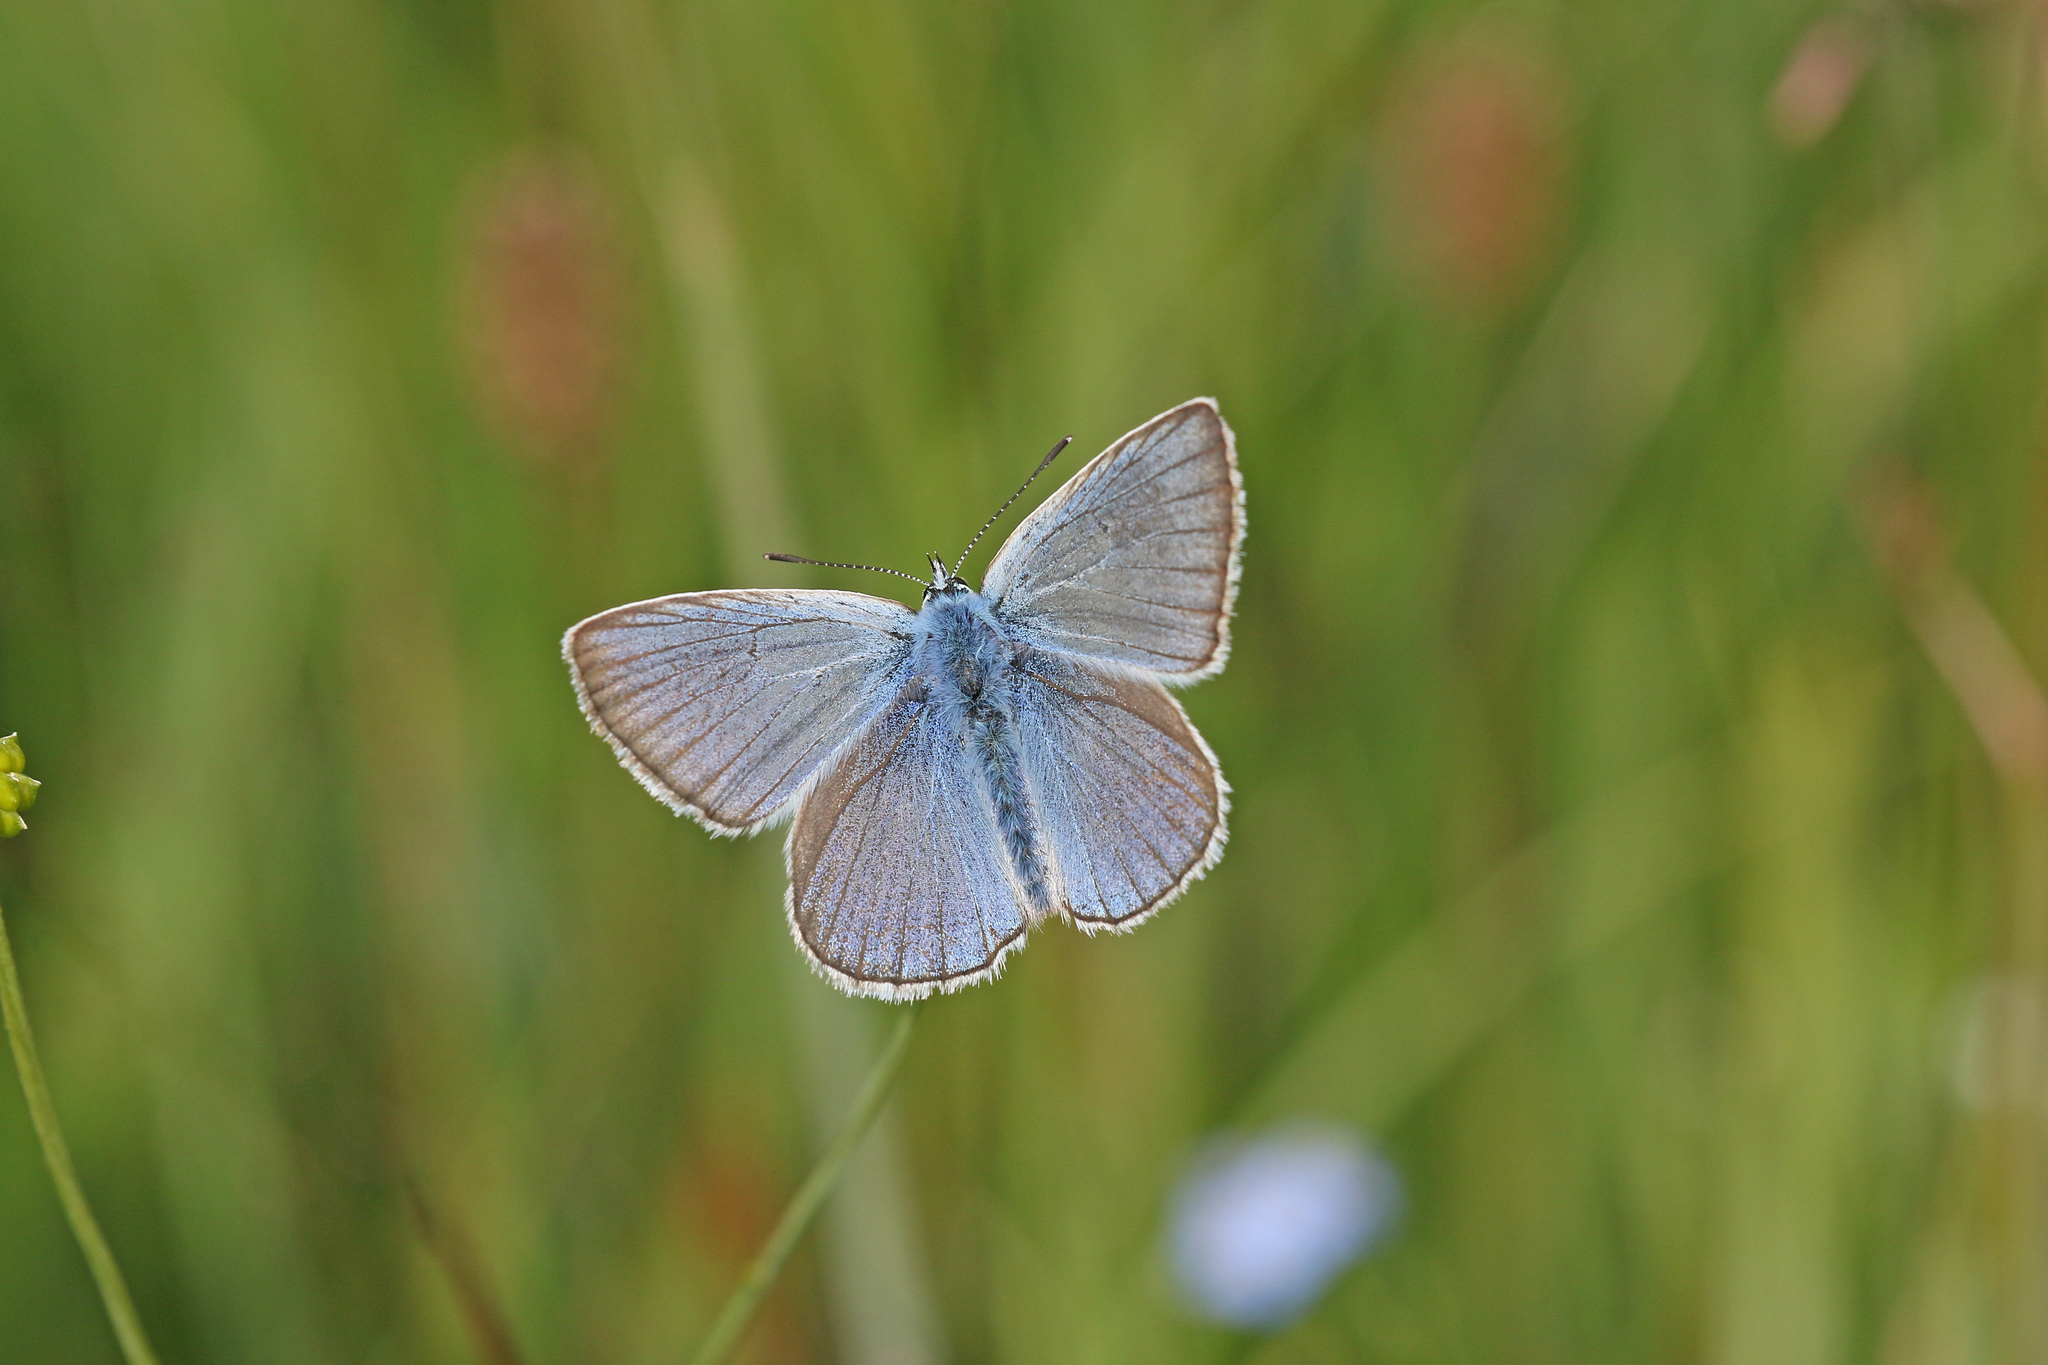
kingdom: Animalia
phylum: Arthropoda
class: Insecta
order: Lepidoptera
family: Lycaenidae
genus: Plebejus
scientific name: Plebejus amanda
